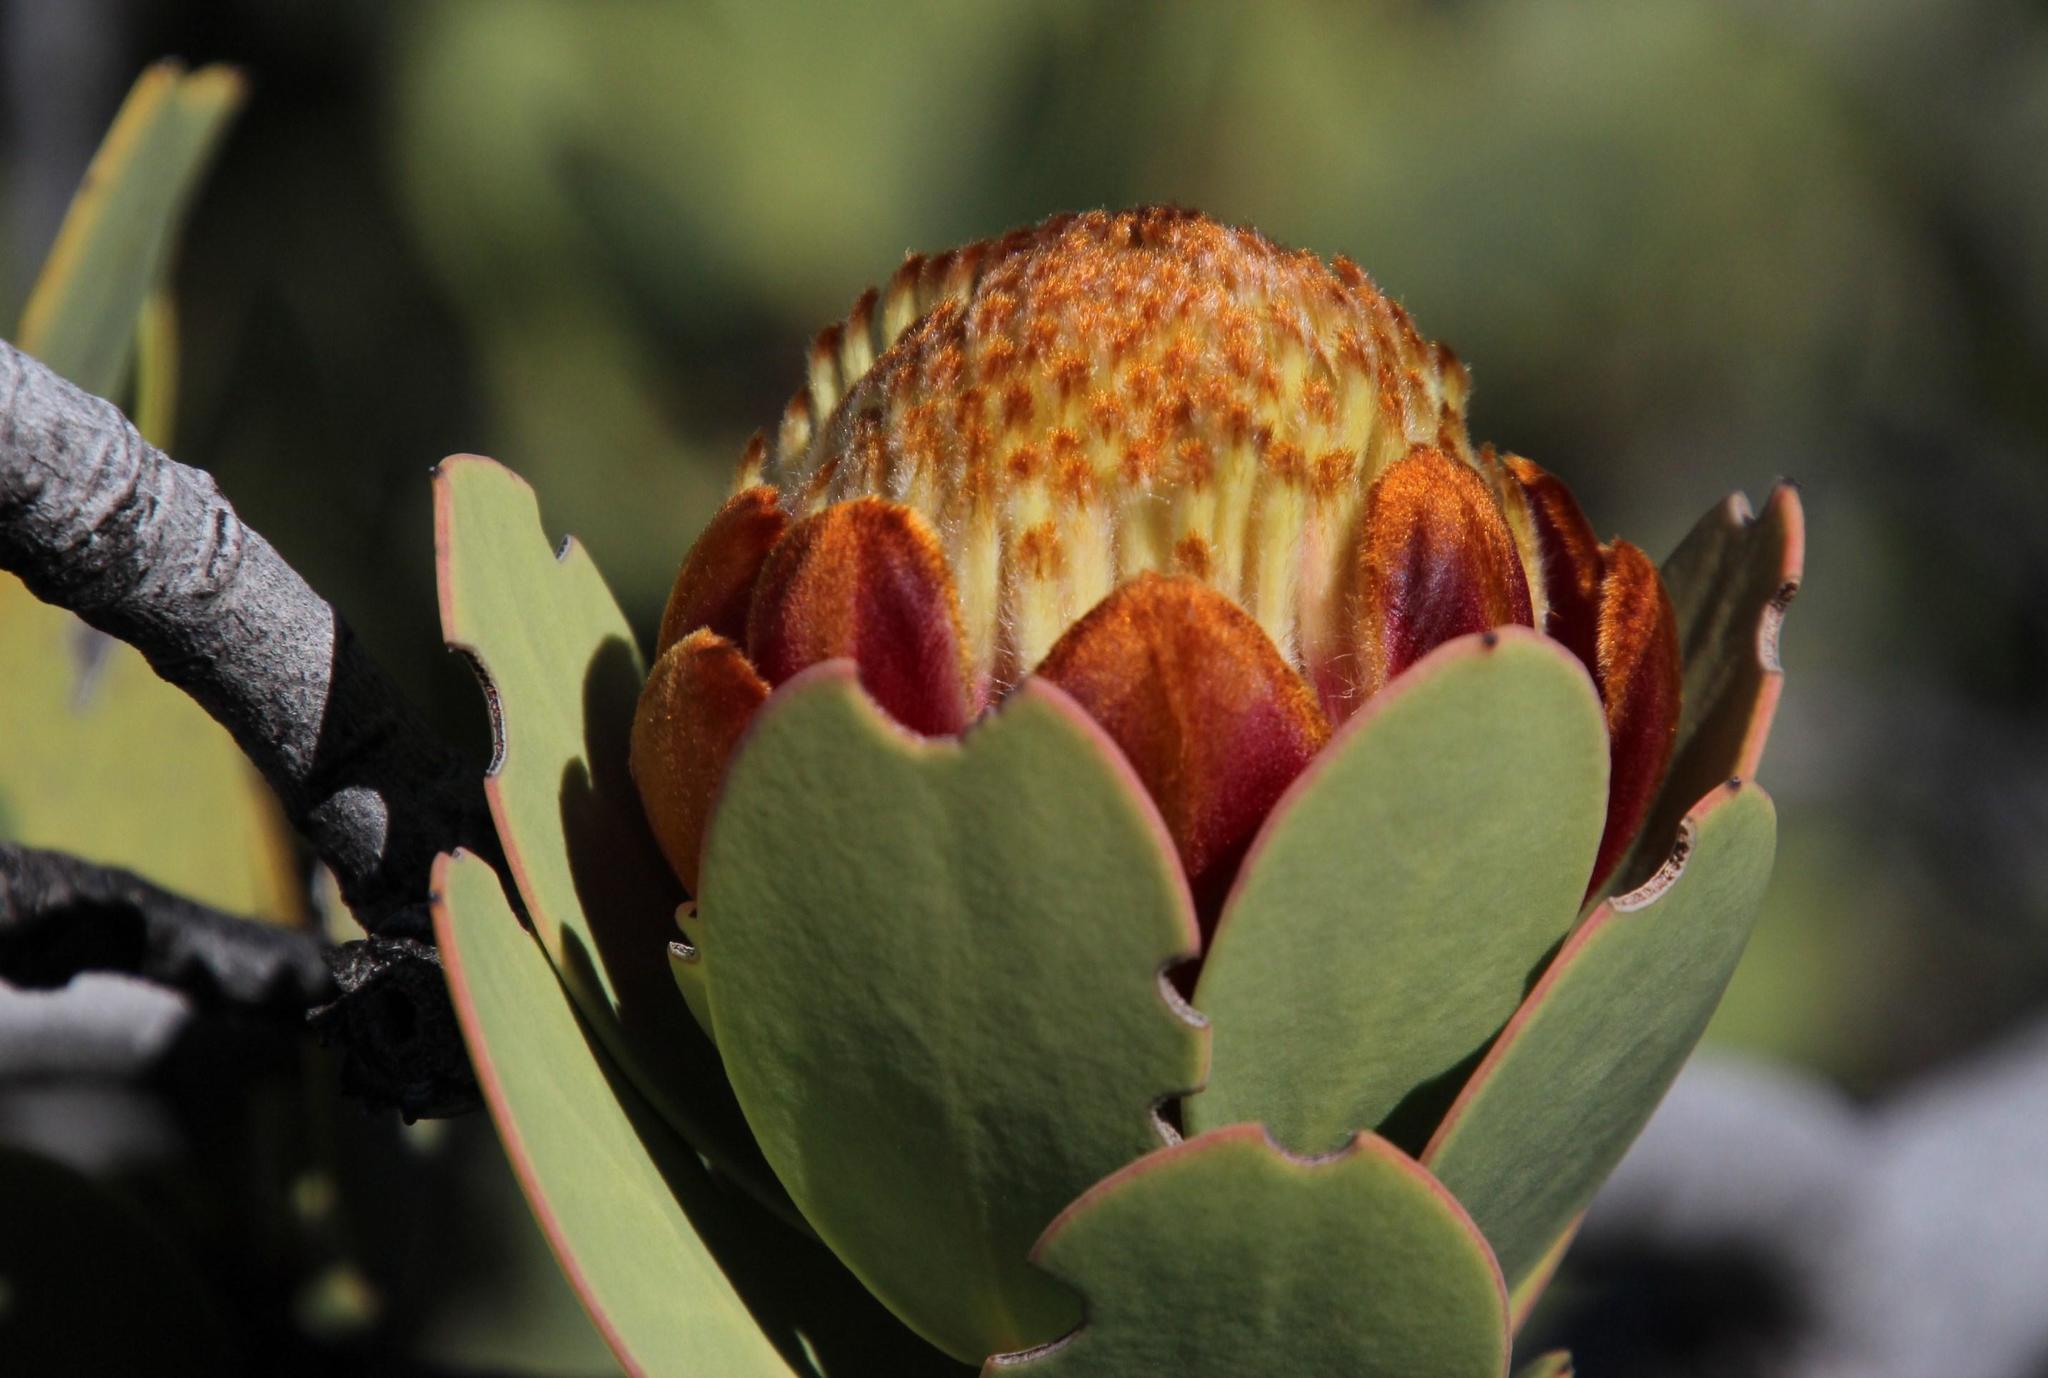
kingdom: Plantae
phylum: Tracheophyta
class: Magnoliopsida
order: Proteales
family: Proteaceae
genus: Protea
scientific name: Protea glabra
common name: Chestnut sugarbush
